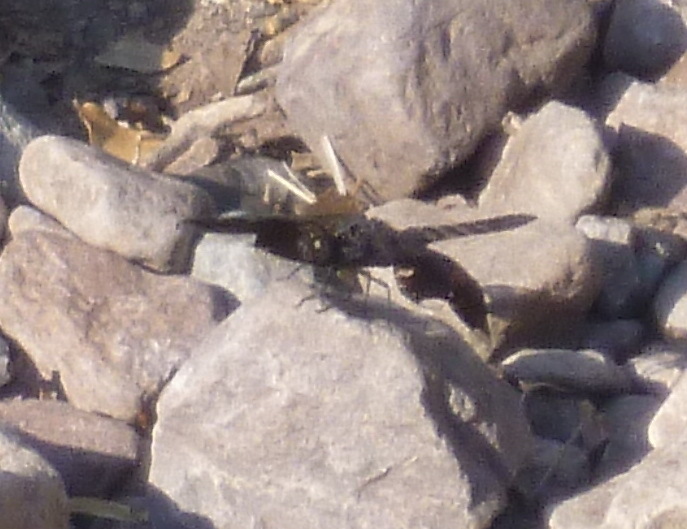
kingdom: Animalia
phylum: Arthropoda
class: Insecta
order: Odonata
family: Libellulidae
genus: Pseudoleon
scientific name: Pseudoleon superbus
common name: Filigree skimmer
